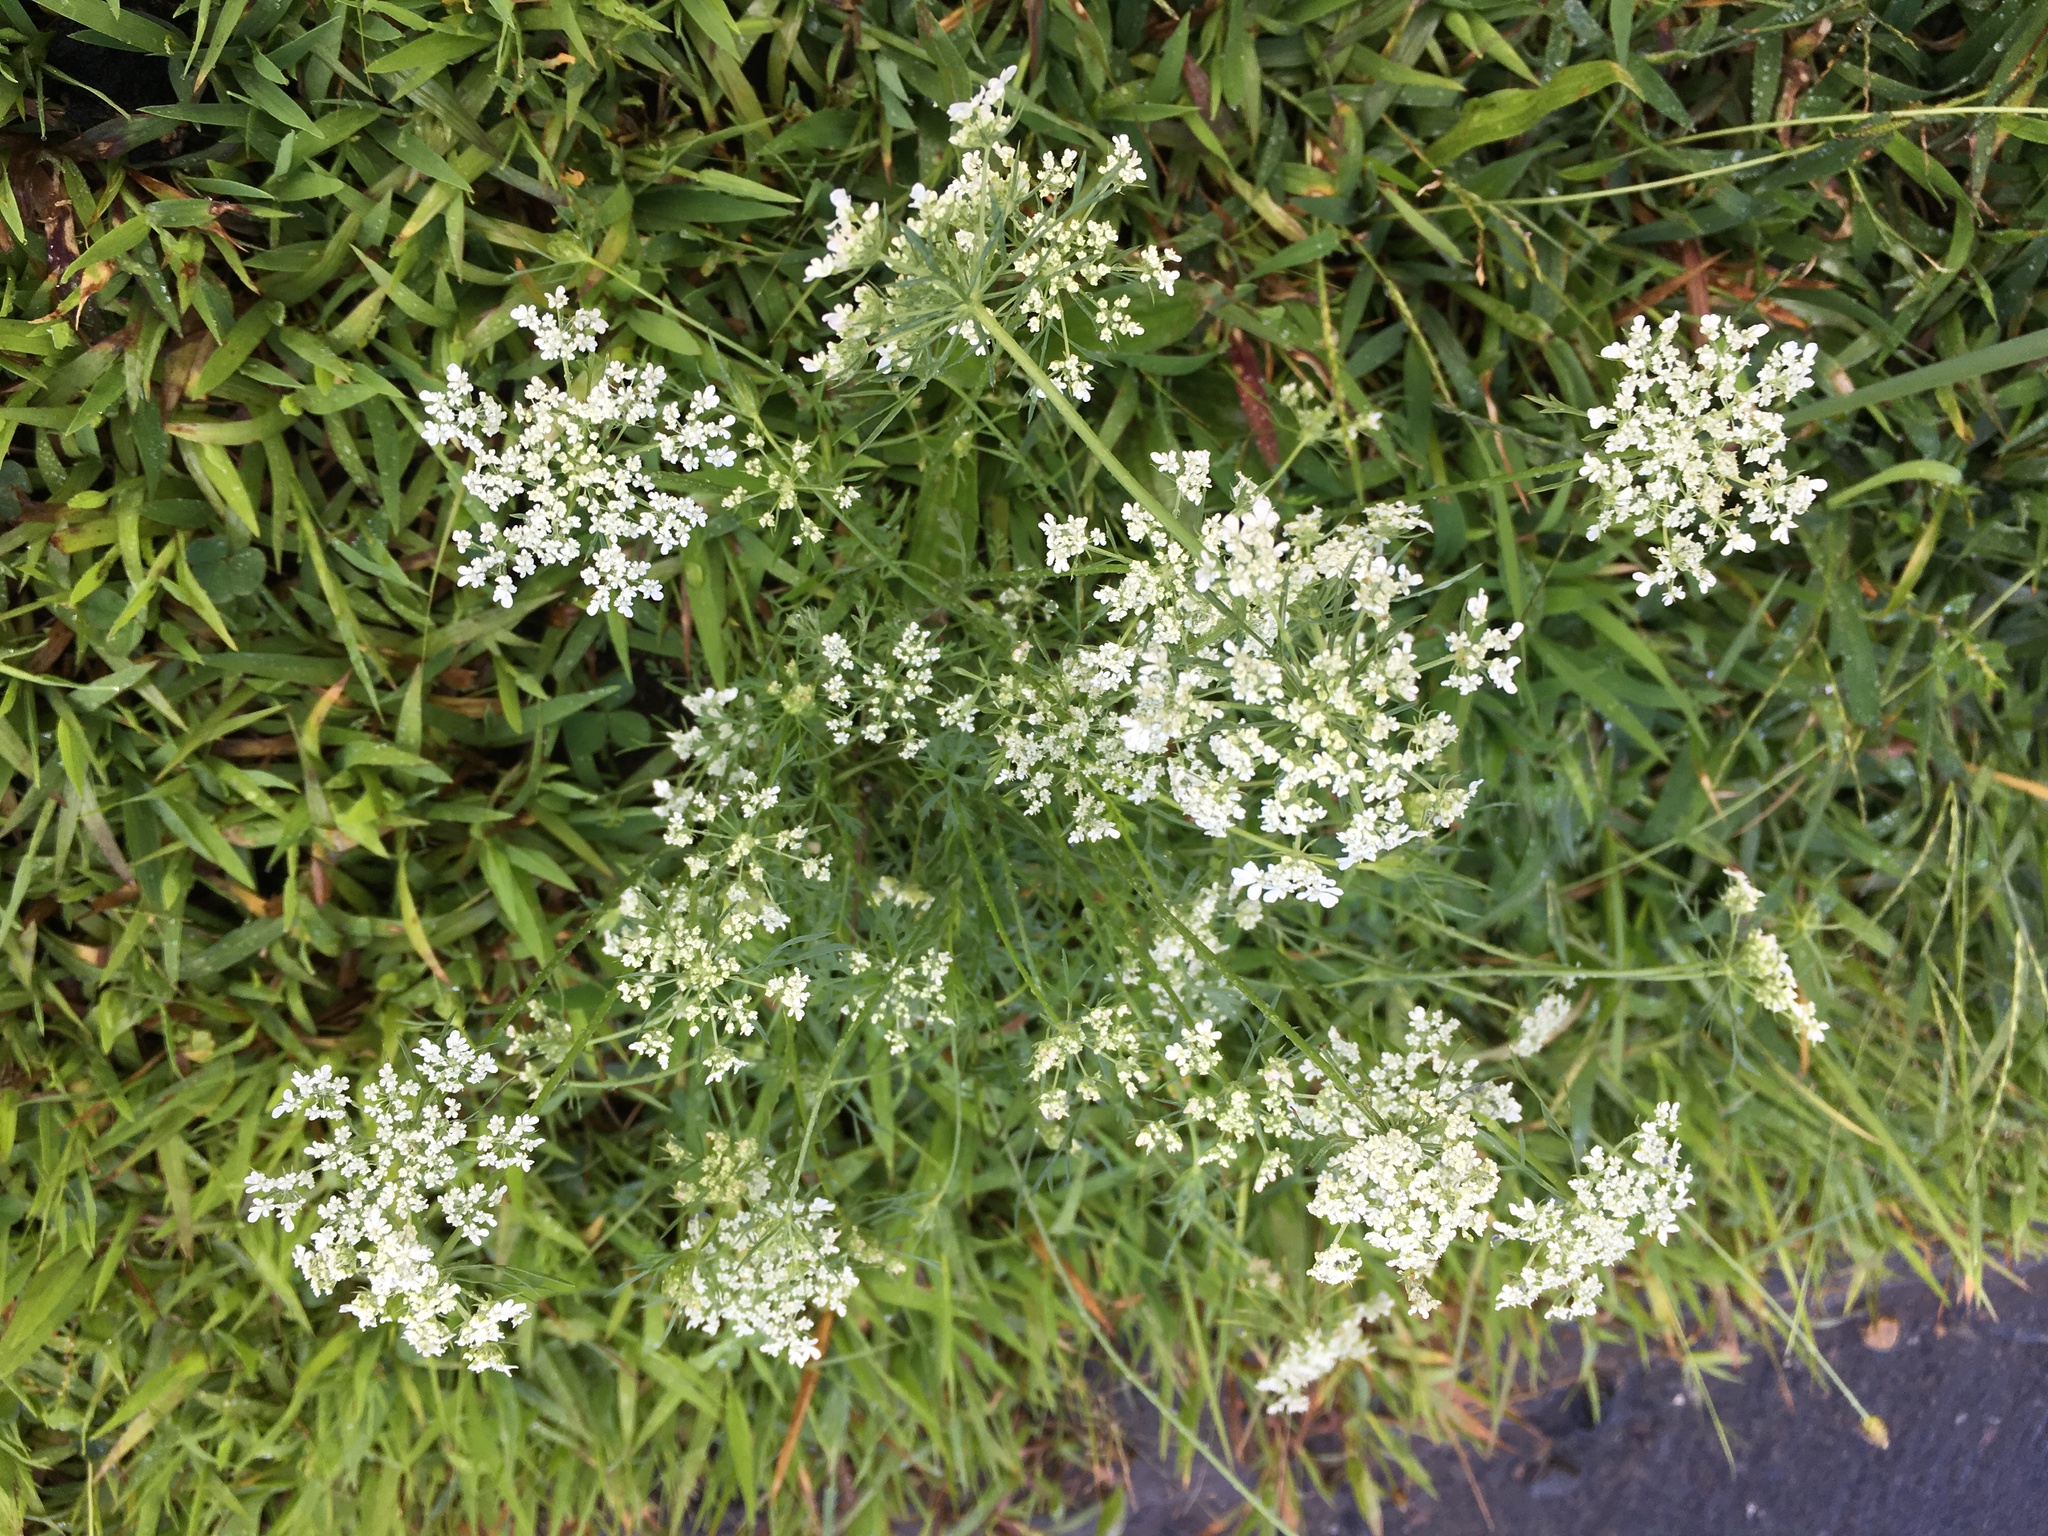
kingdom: Plantae
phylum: Tracheophyta
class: Magnoliopsida
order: Apiales
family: Apiaceae
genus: Daucus
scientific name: Daucus carota
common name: Wild carrot
